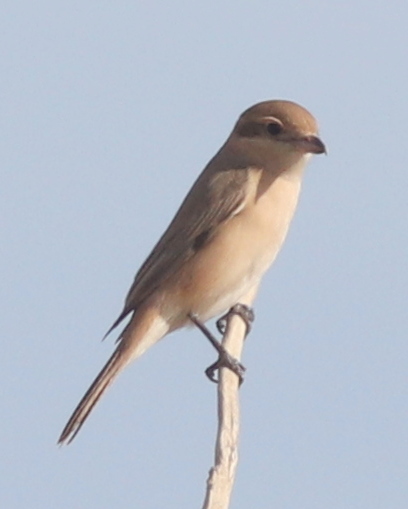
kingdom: Animalia
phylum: Chordata
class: Aves
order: Passeriformes
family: Laniidae
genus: Lanius
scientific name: Lanius isabellinus
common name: Isabelline shrike
